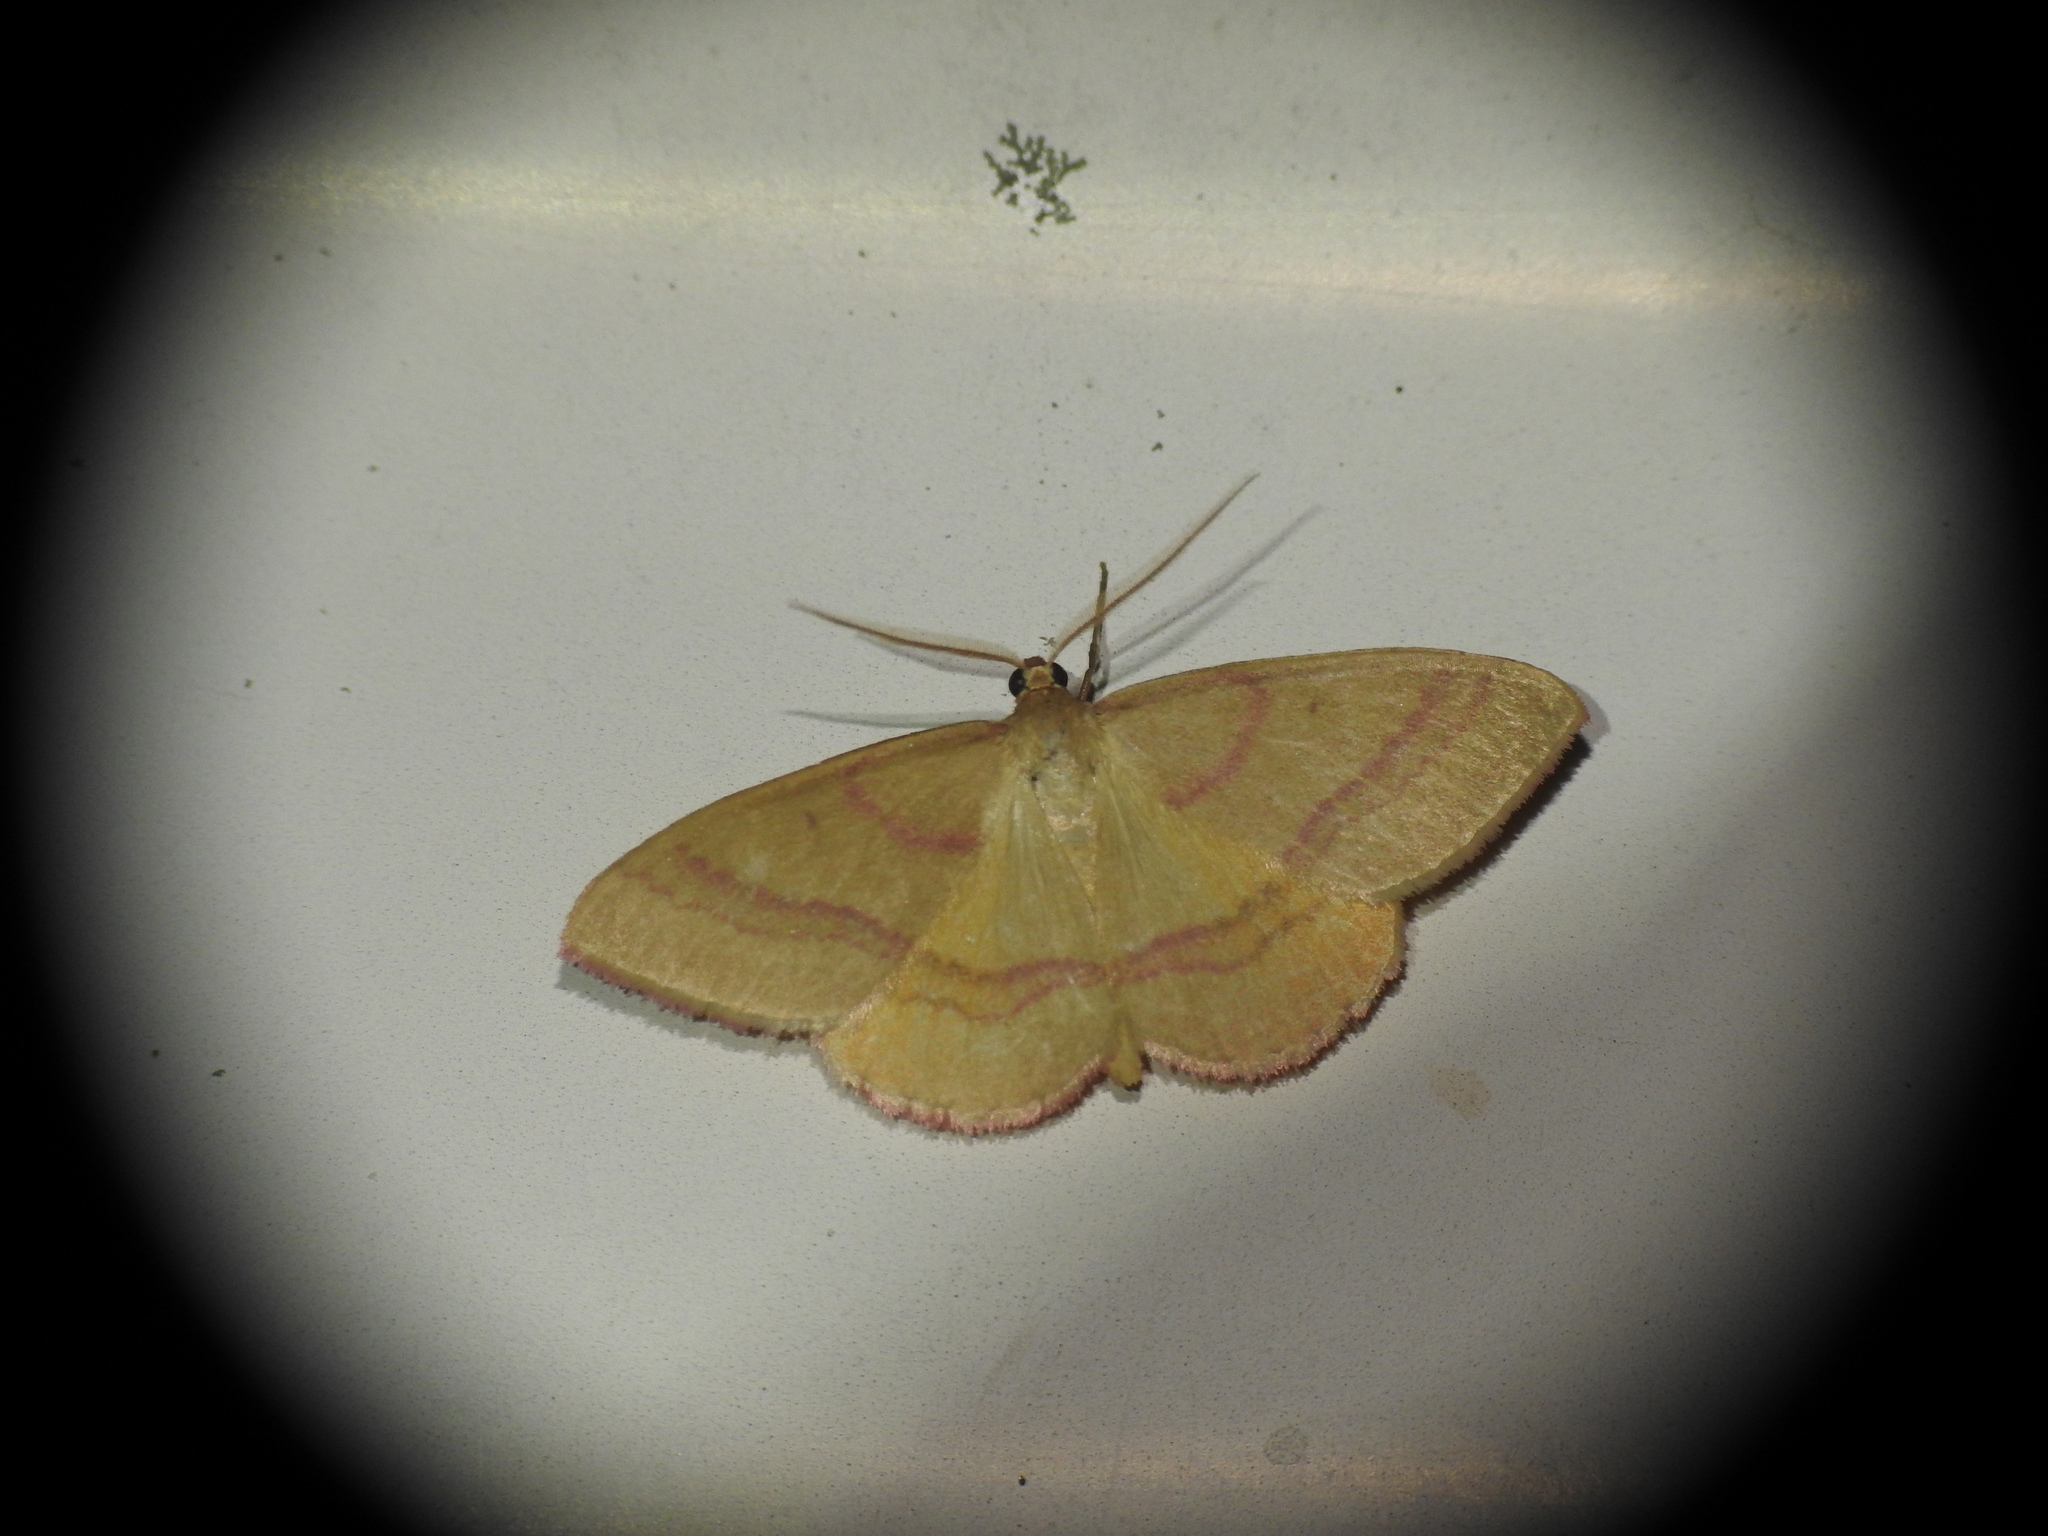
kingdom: Animalia
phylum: Arthropoda
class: Insecta
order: Lepidoptera
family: Geometridae
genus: Rhodostrophia
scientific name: Rhodostrophia calabra
